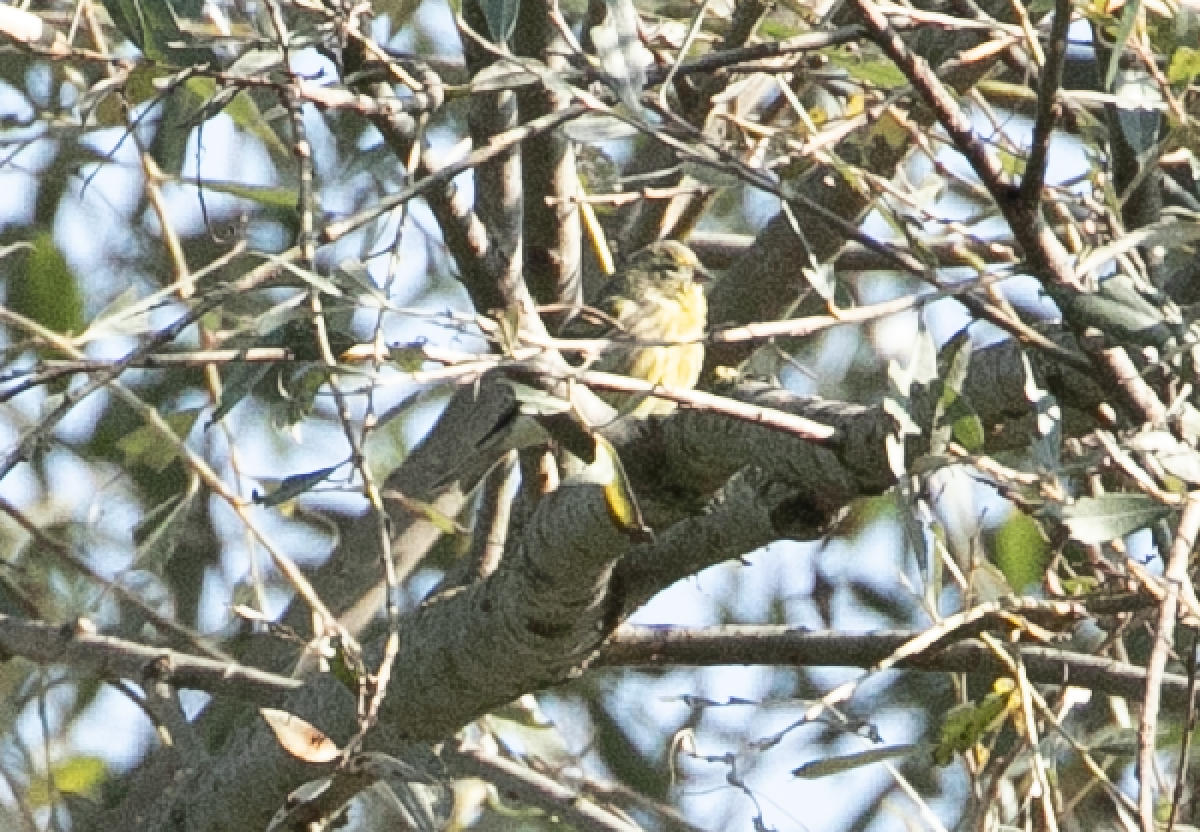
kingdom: Animalia
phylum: Chordata
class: Aves
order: Passeriformes
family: Fringillidae
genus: Serinus
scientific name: Serinus serinus
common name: European serin
